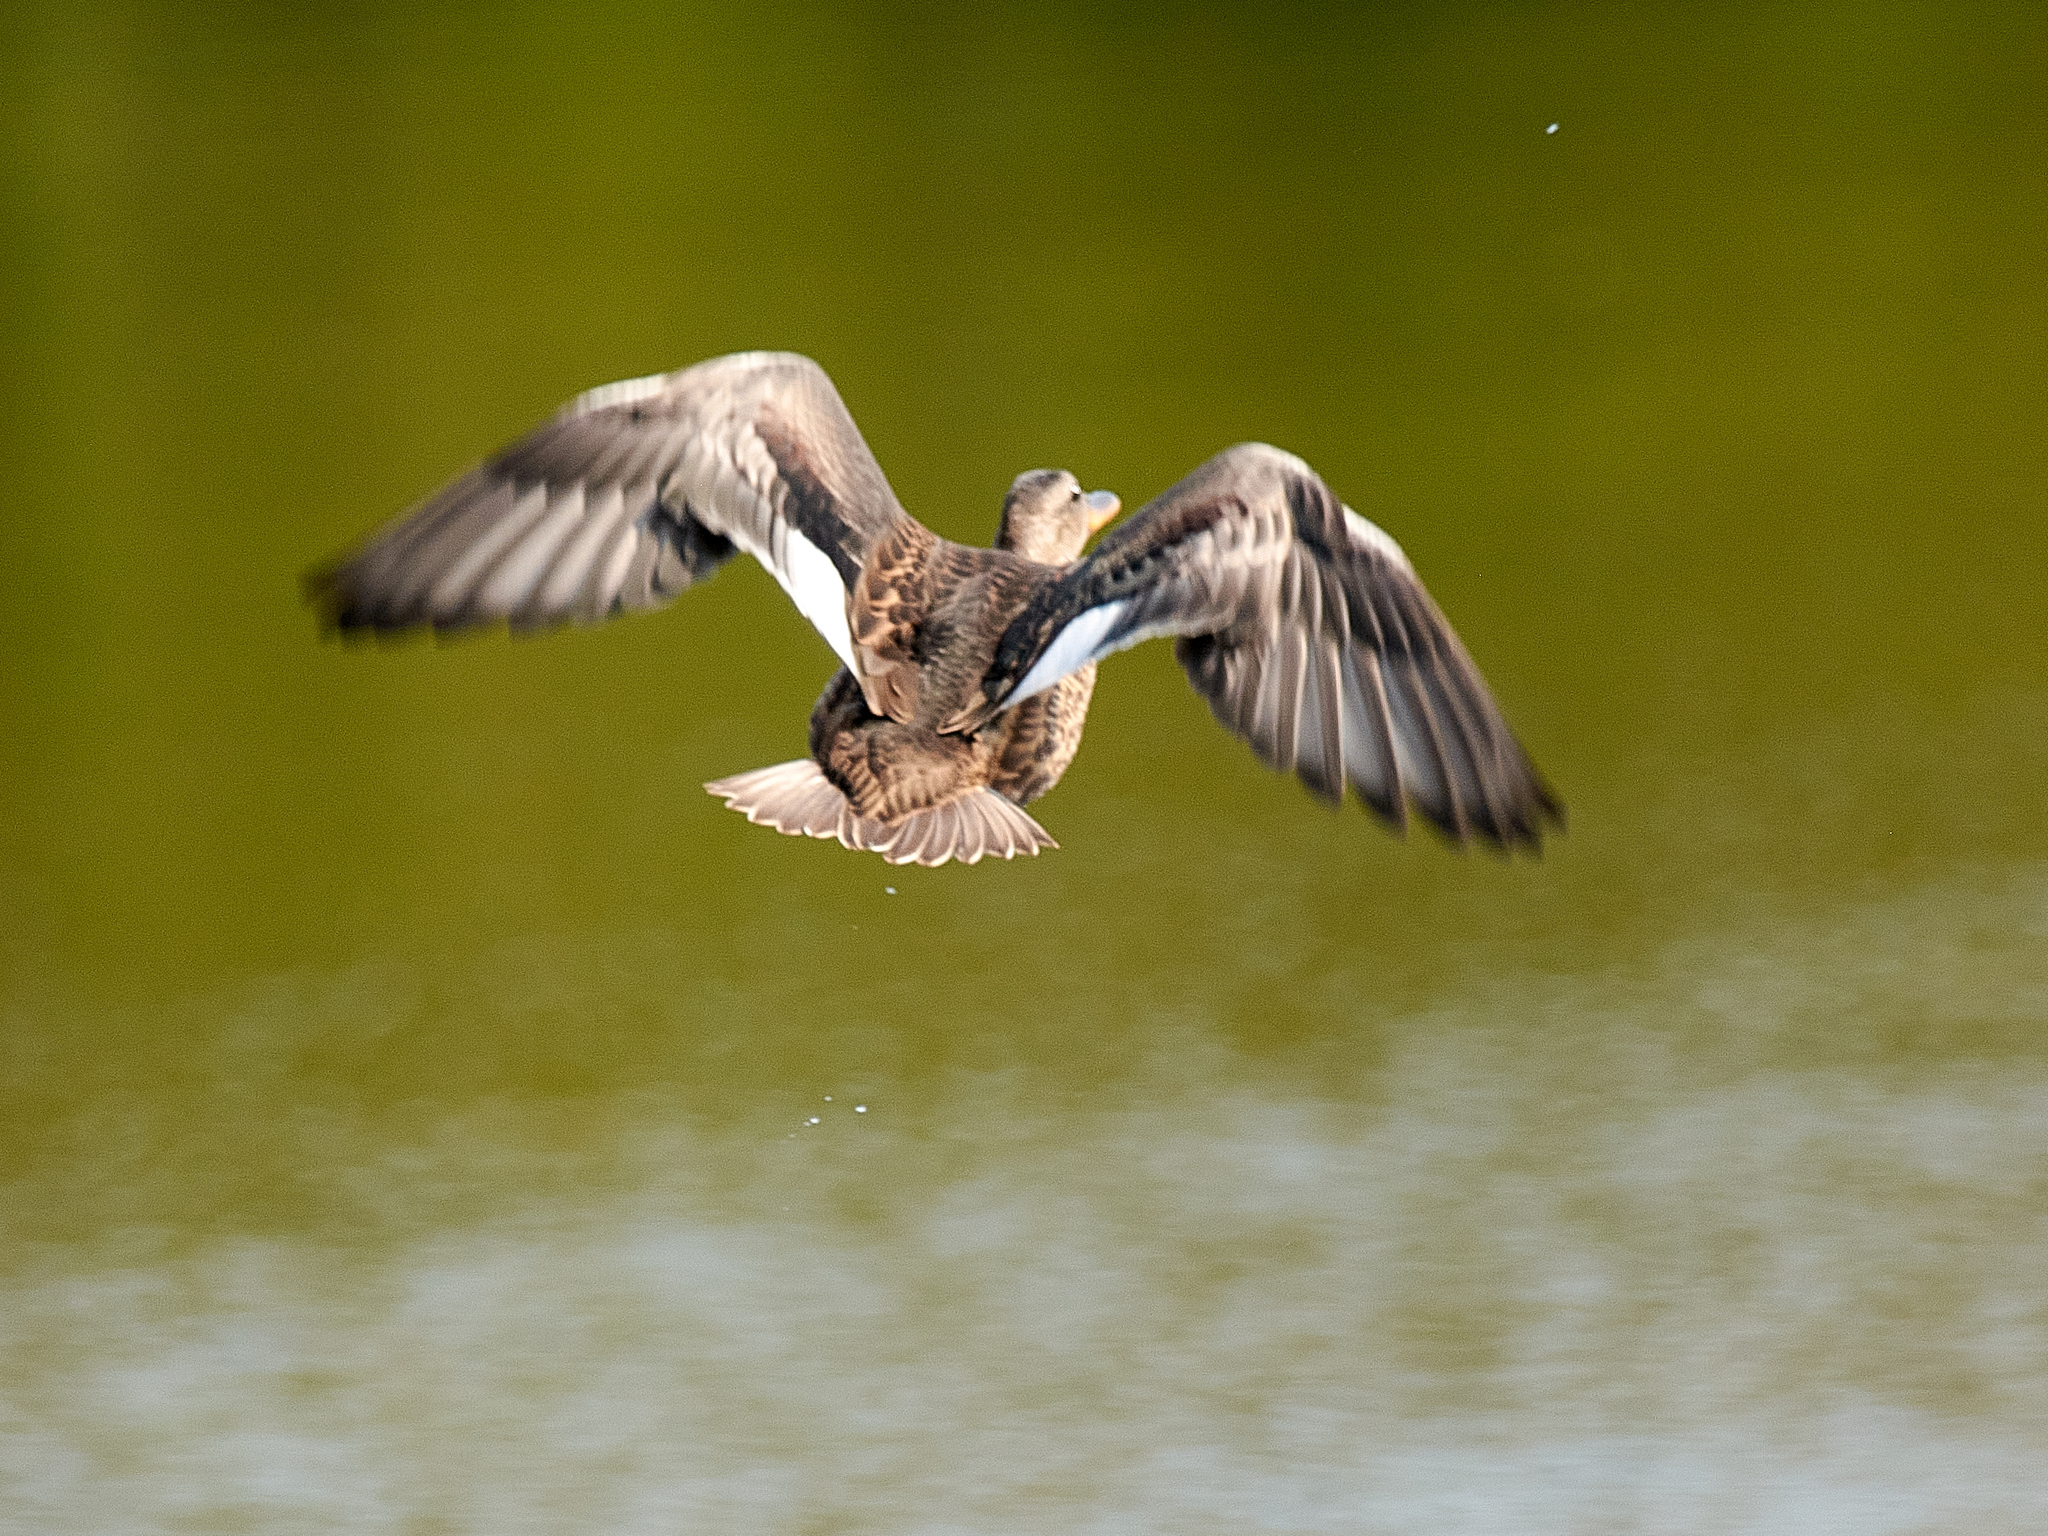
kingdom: Animalia
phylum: Chordata
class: Aves
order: Anseriformes
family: Anatidae
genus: Mareca
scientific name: Mareca strepera
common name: Gadwall
